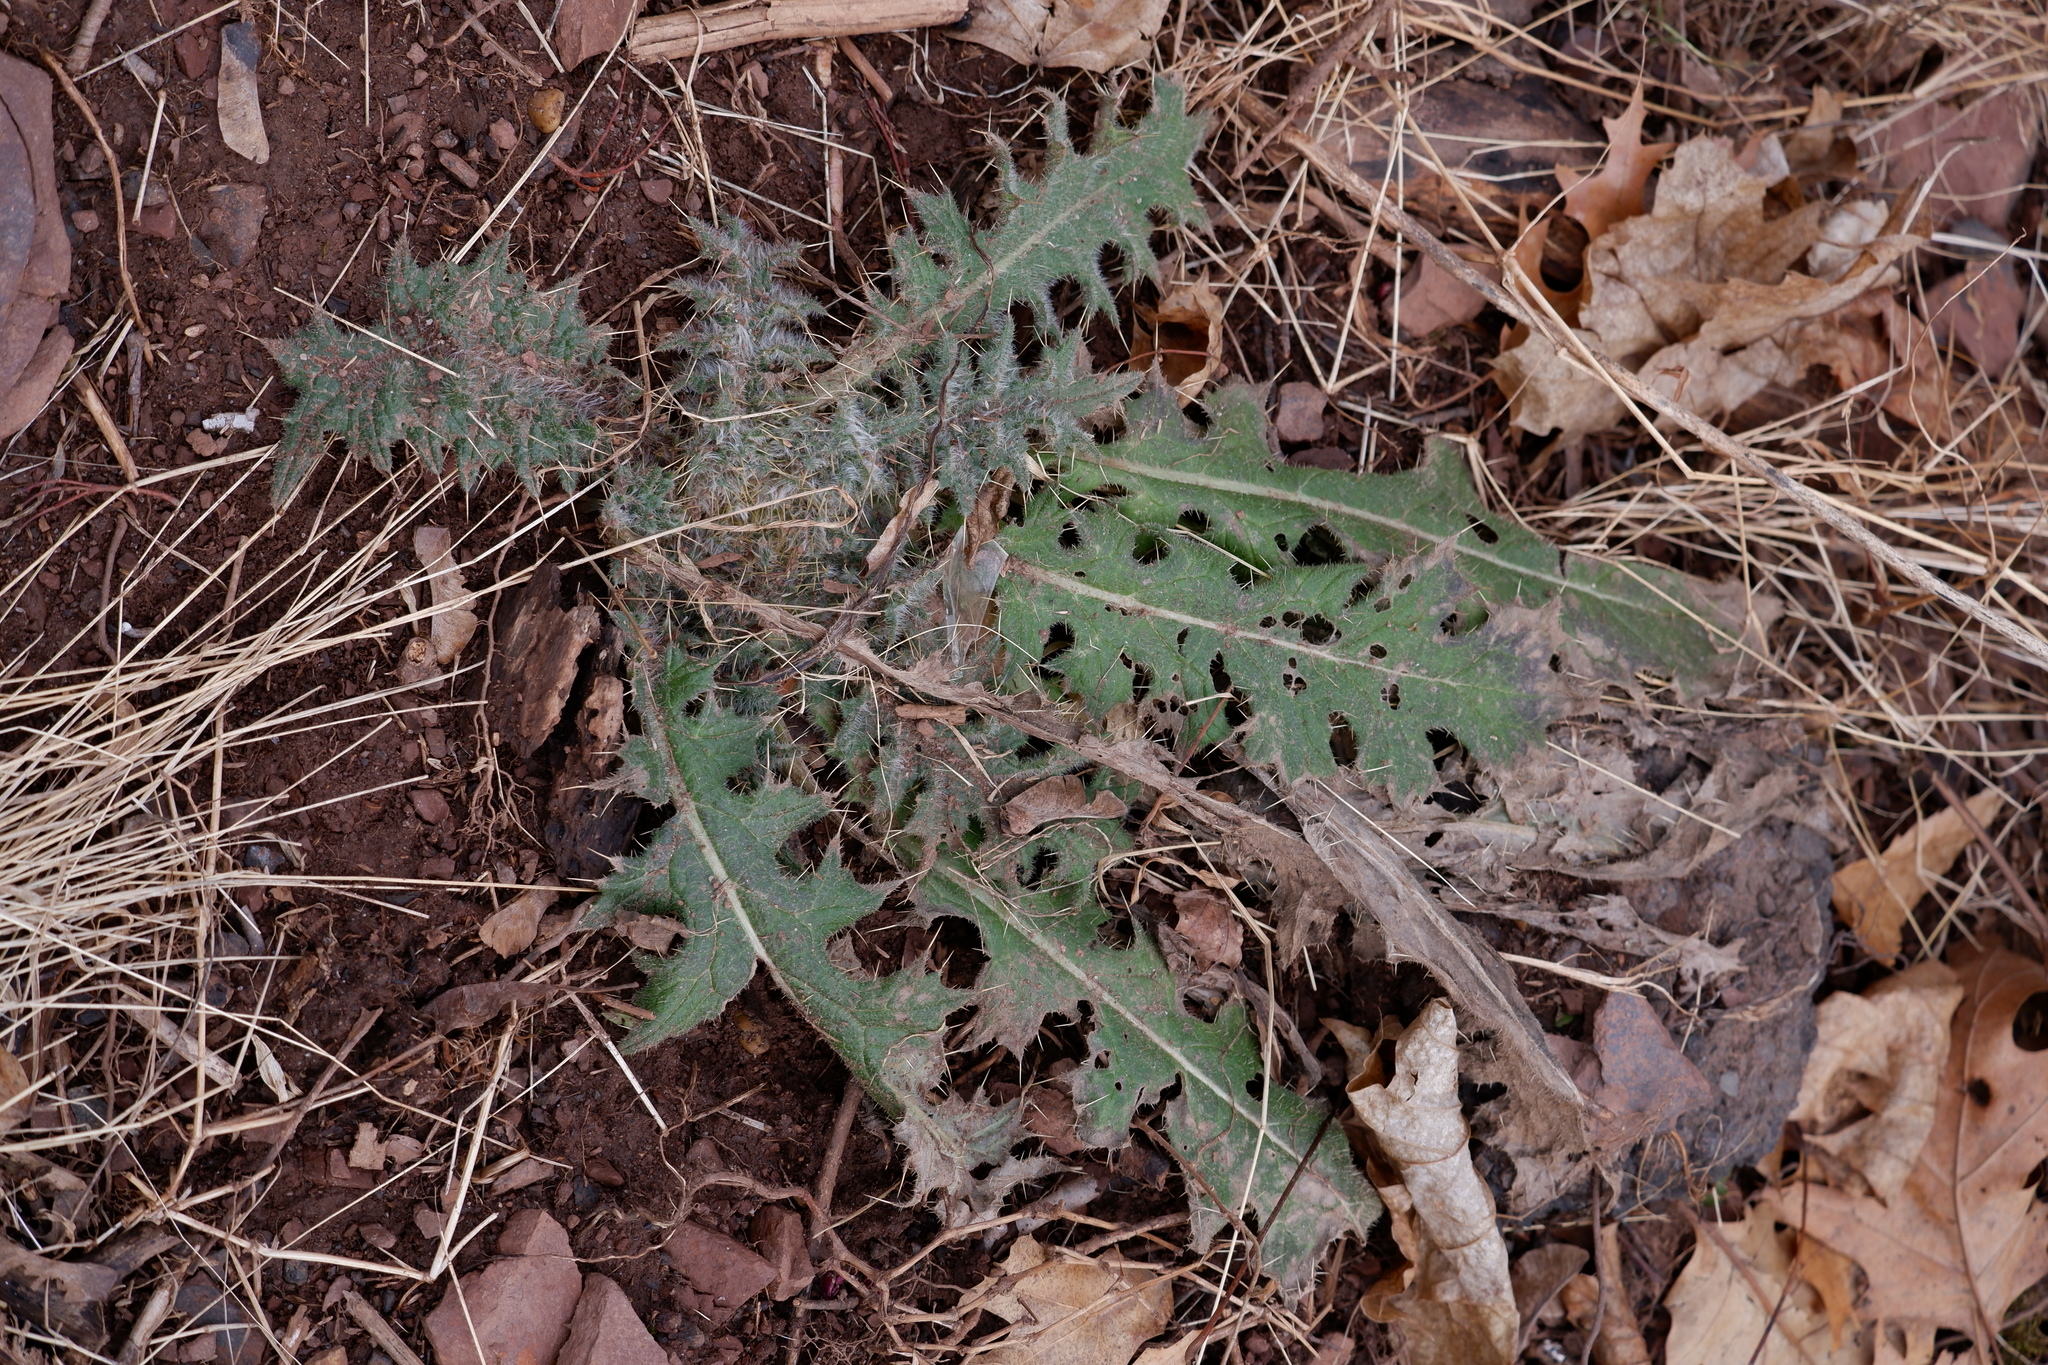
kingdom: Plantae
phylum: Tracheophyta
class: Magnoliopsida
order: Asterales
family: Asteraceae
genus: Cirsium
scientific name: Cirsium vulgare
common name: Bull thistle
